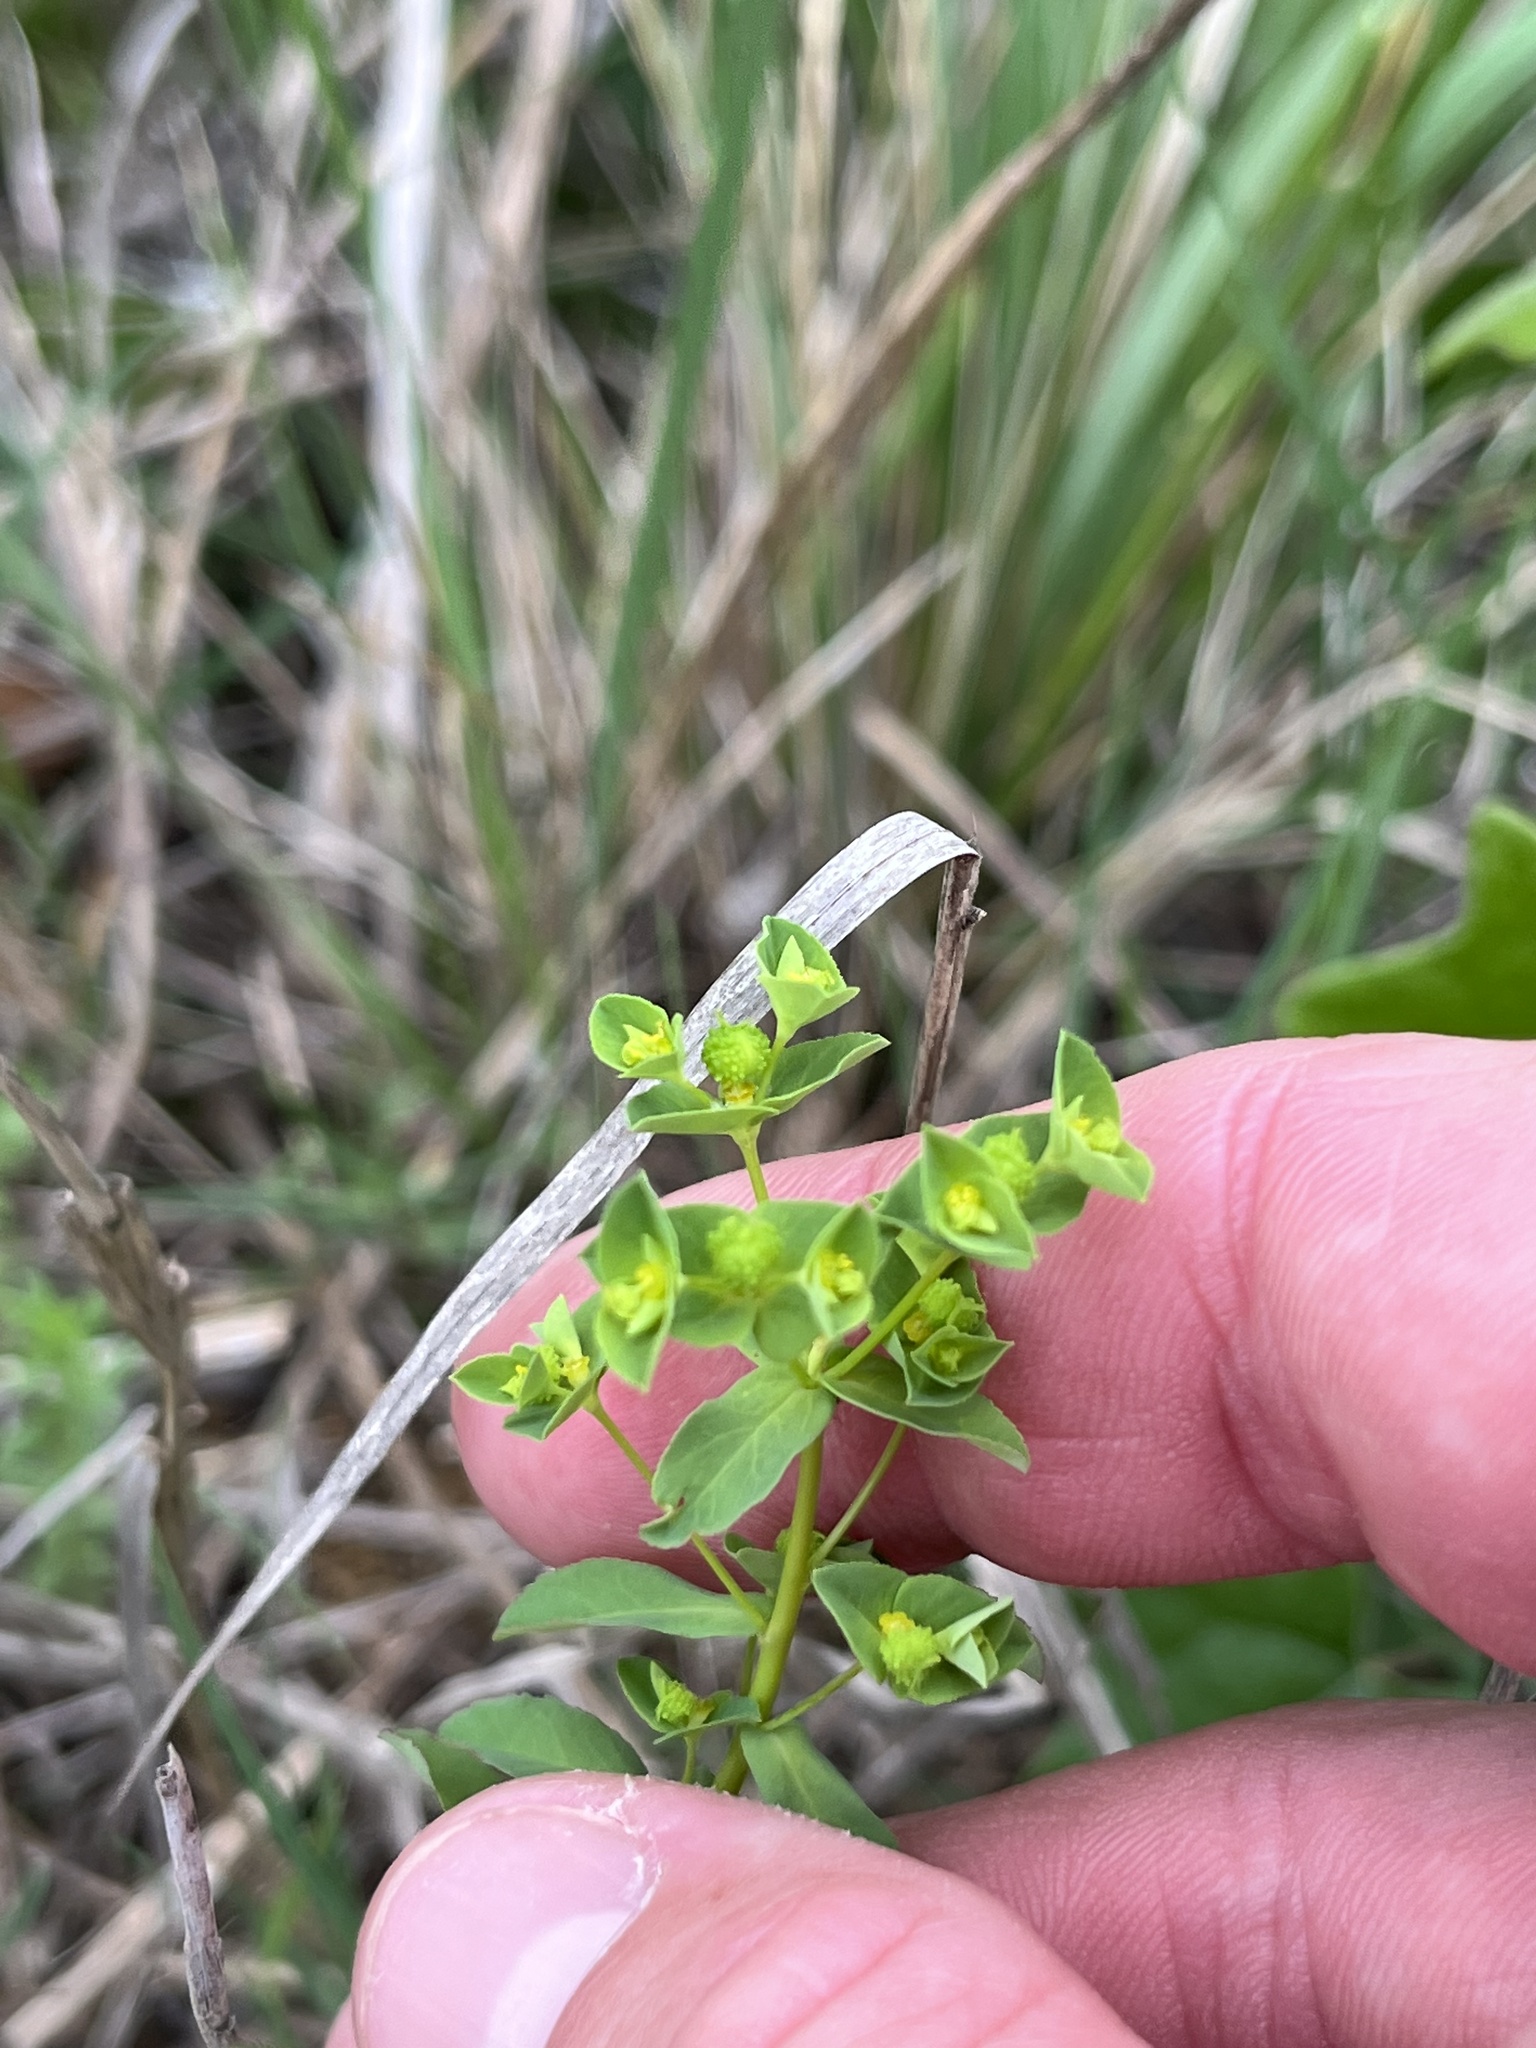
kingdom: Plantae
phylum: Tracheophyta
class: Magnoliopsida
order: Malpighiales
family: Euphorbiaceae
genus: Euphorbia
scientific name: Euphorbia spathulata
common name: Blunt spurge
